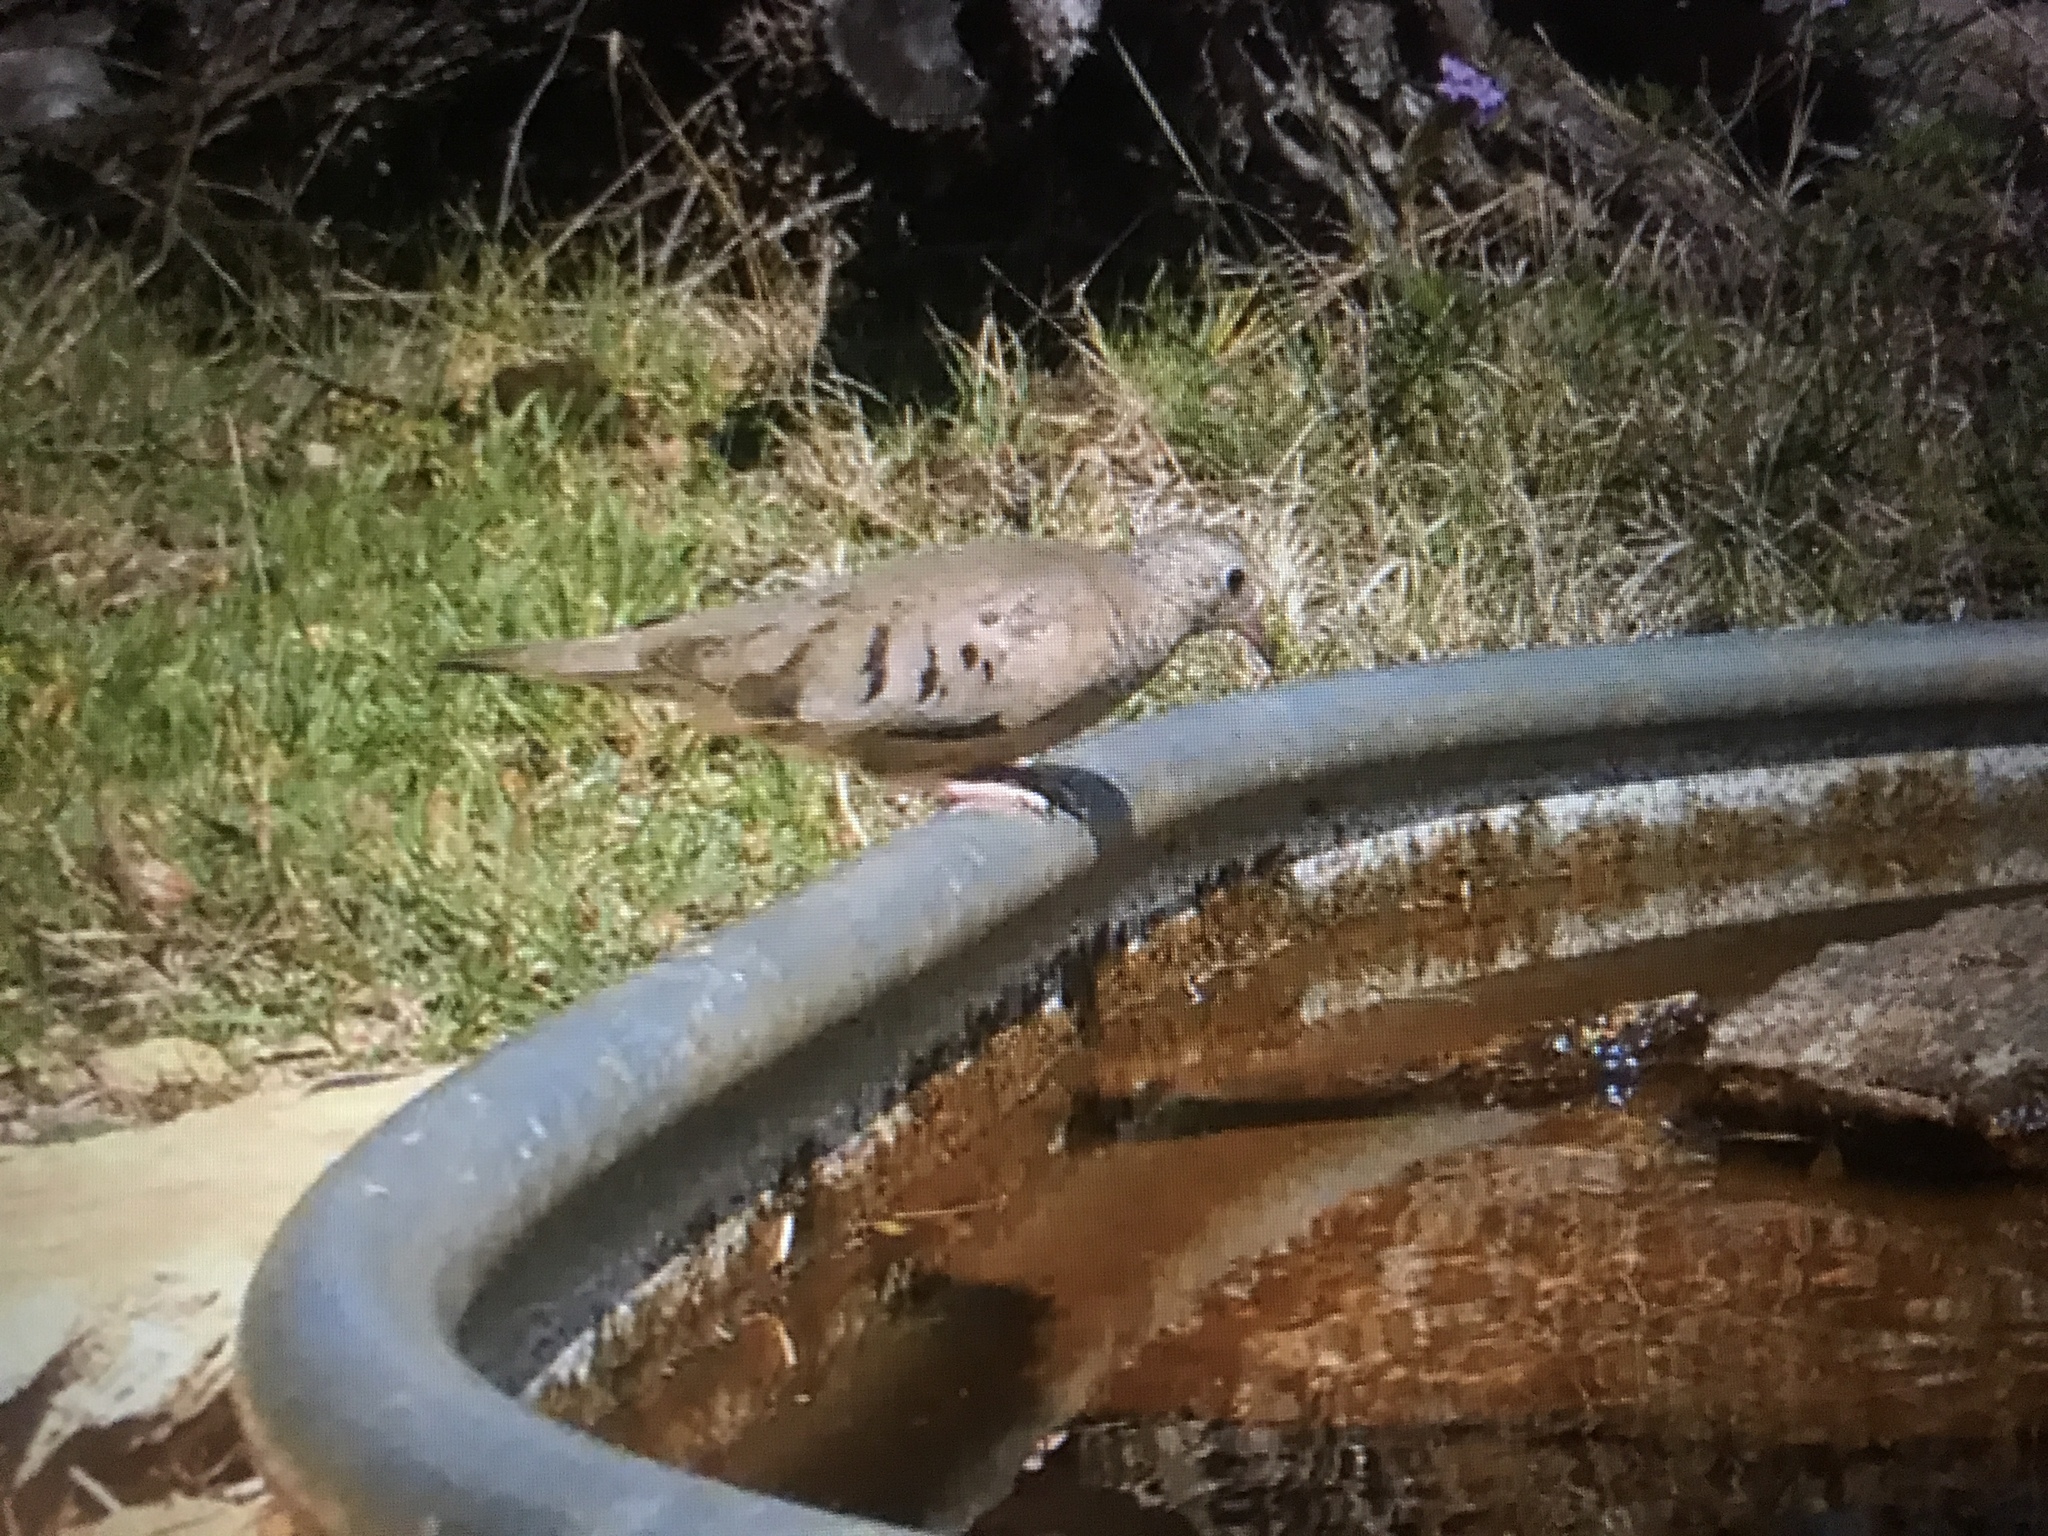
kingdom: Animalia
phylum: Chordata
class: Aves
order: Columbiformes
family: Columbidae
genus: Columbina
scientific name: Columbina passerina
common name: Common ground-dove
